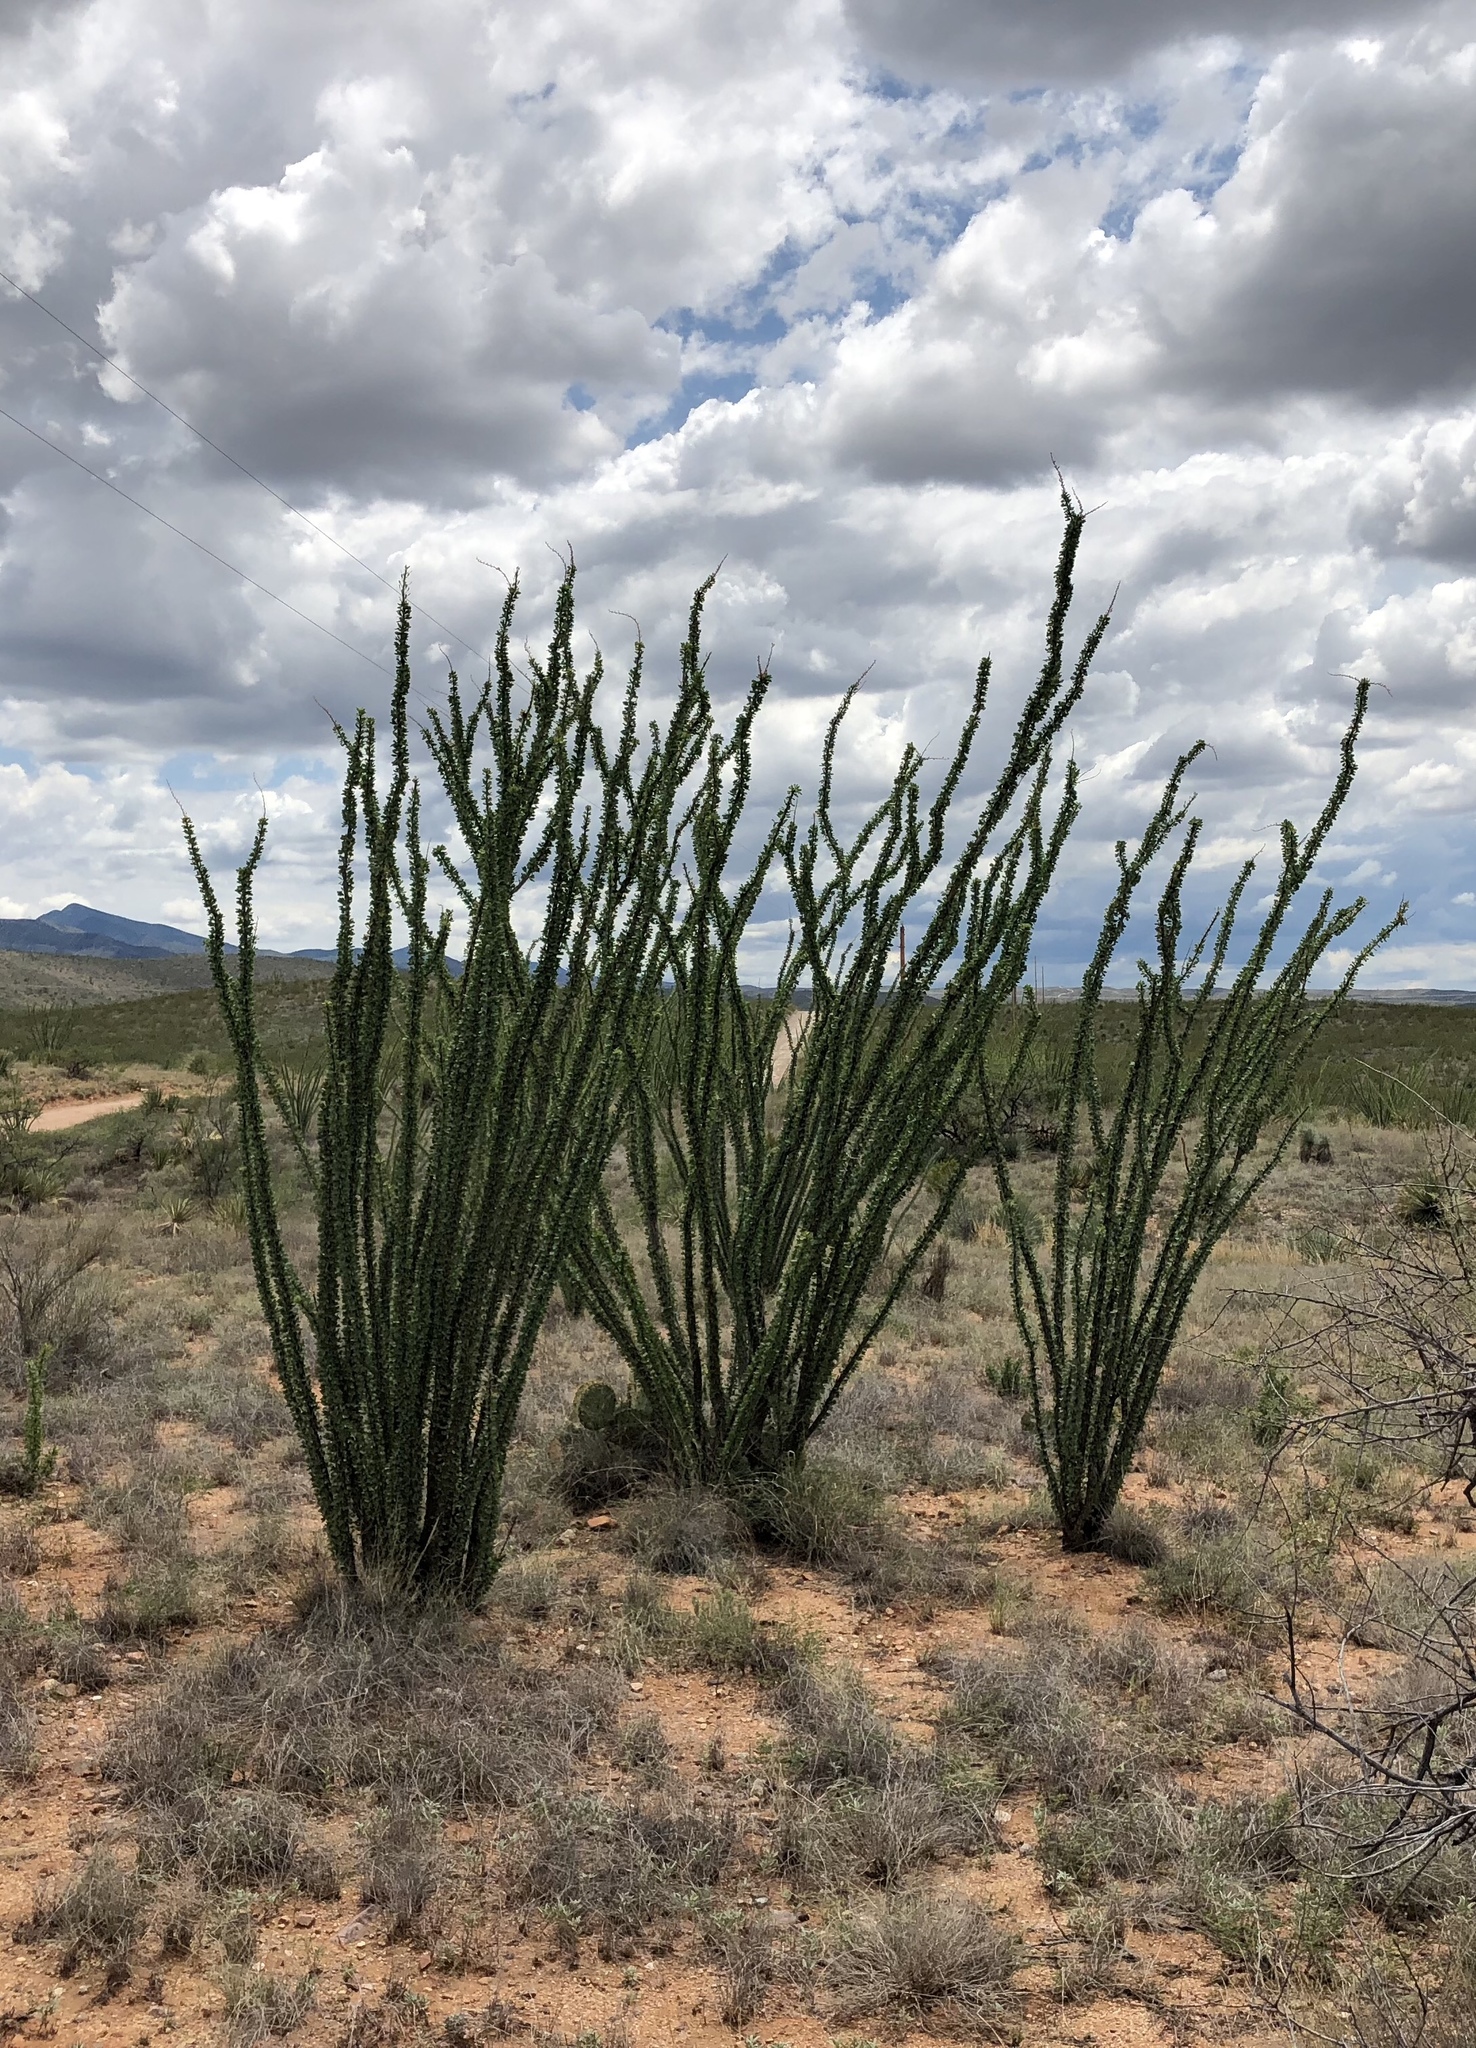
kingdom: Plantae
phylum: Tracheophyta
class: Magnoliopsida
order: Ericales
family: Fouquieriaceae
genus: Fouquieria
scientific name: Fouquieria splendens
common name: Vine-cactus
